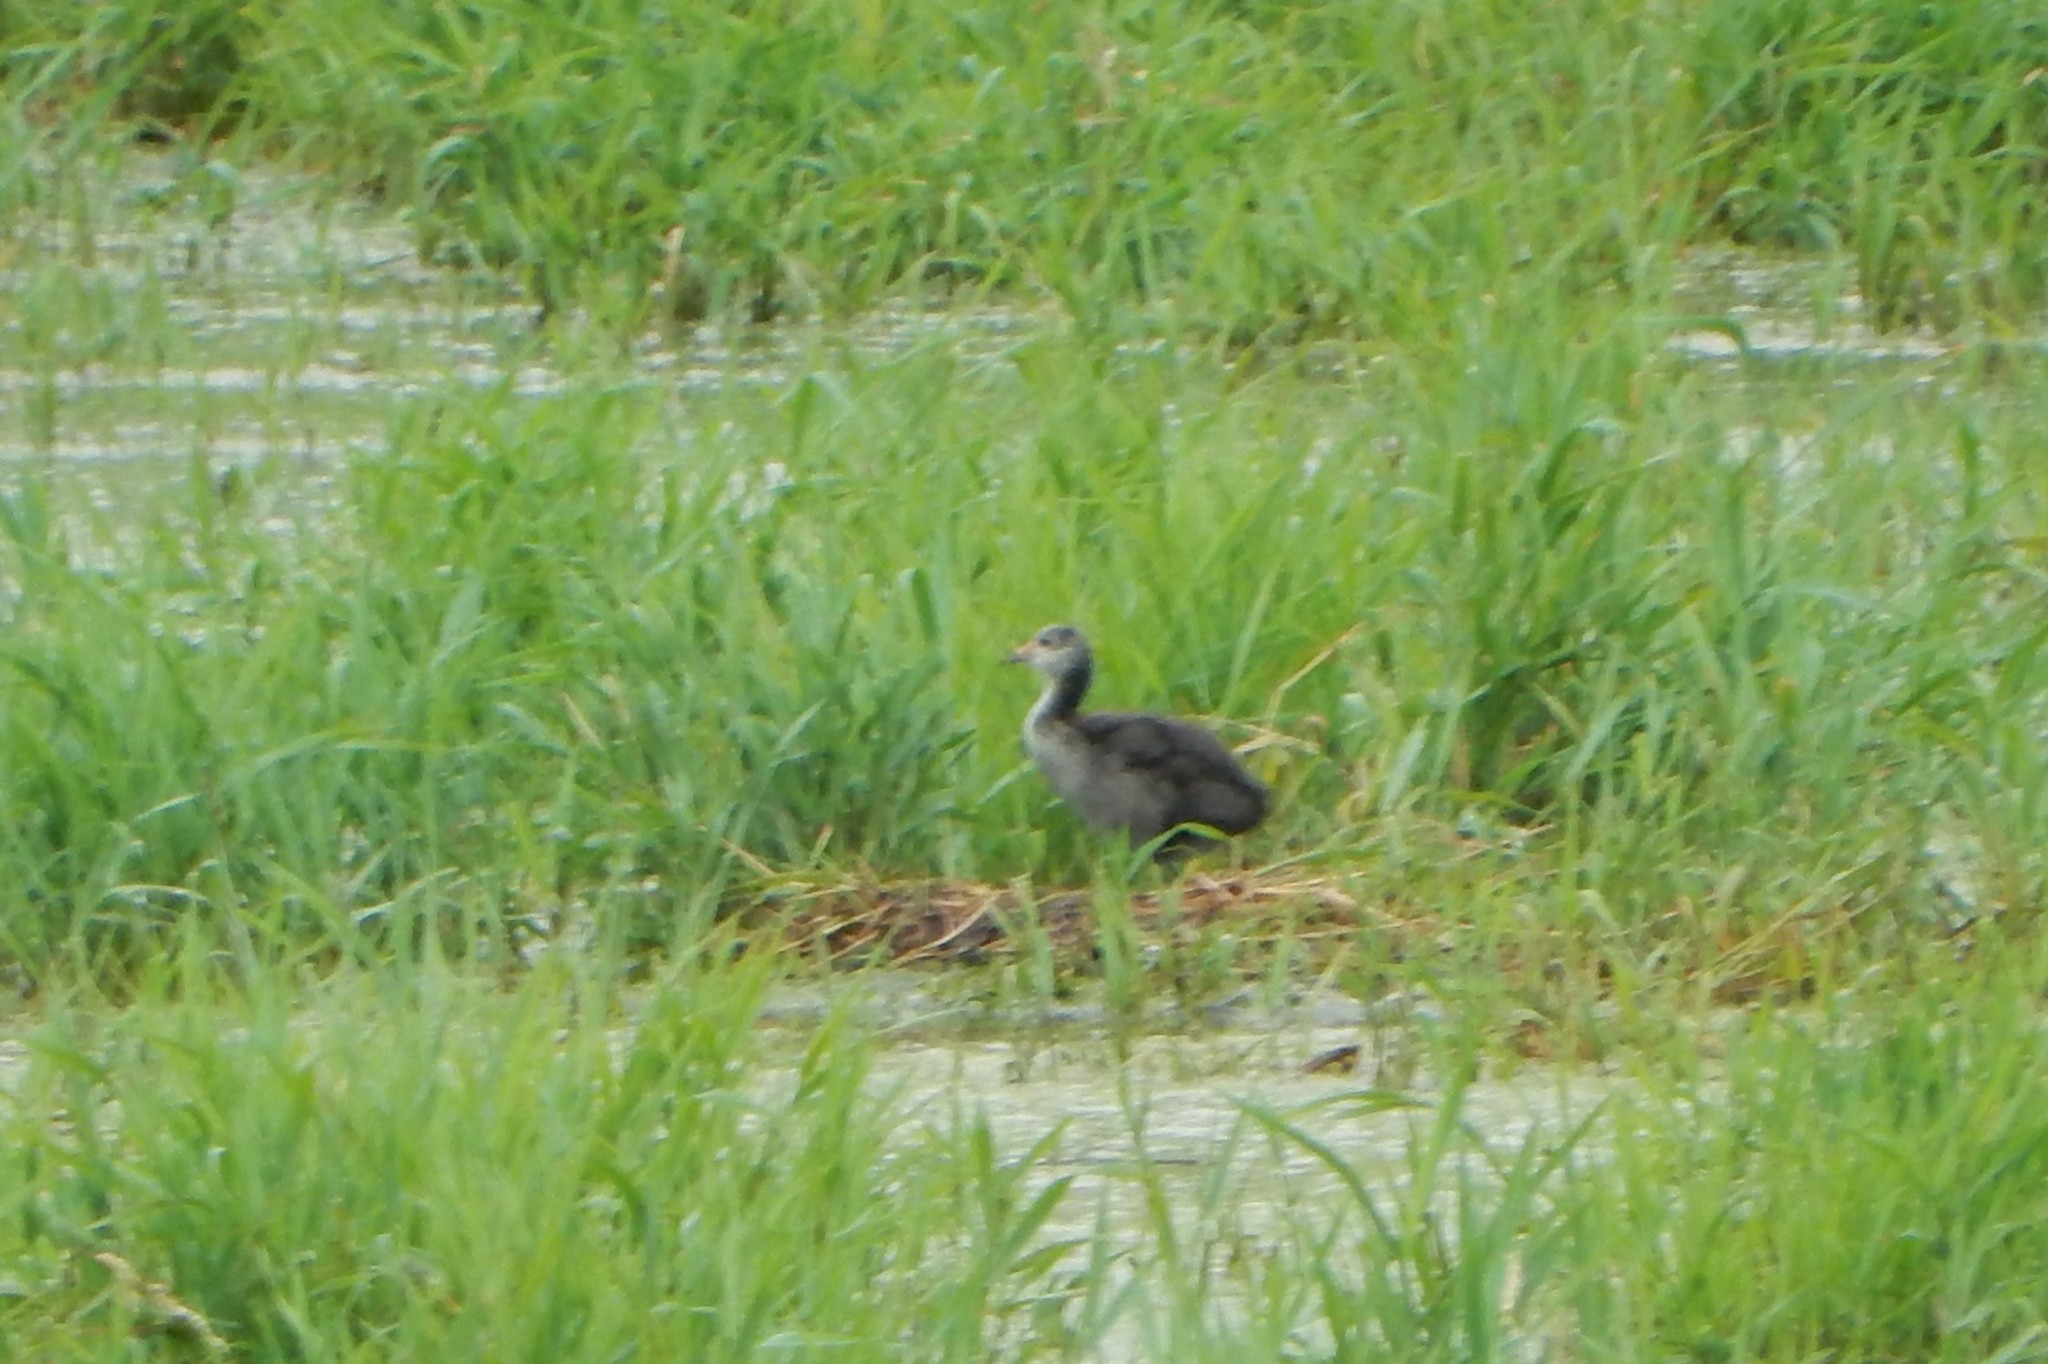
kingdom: Animalia
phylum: Chordata
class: Aves
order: Gruiformes
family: Rallidae
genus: Fulica
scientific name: Fulica americana
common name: American coot
